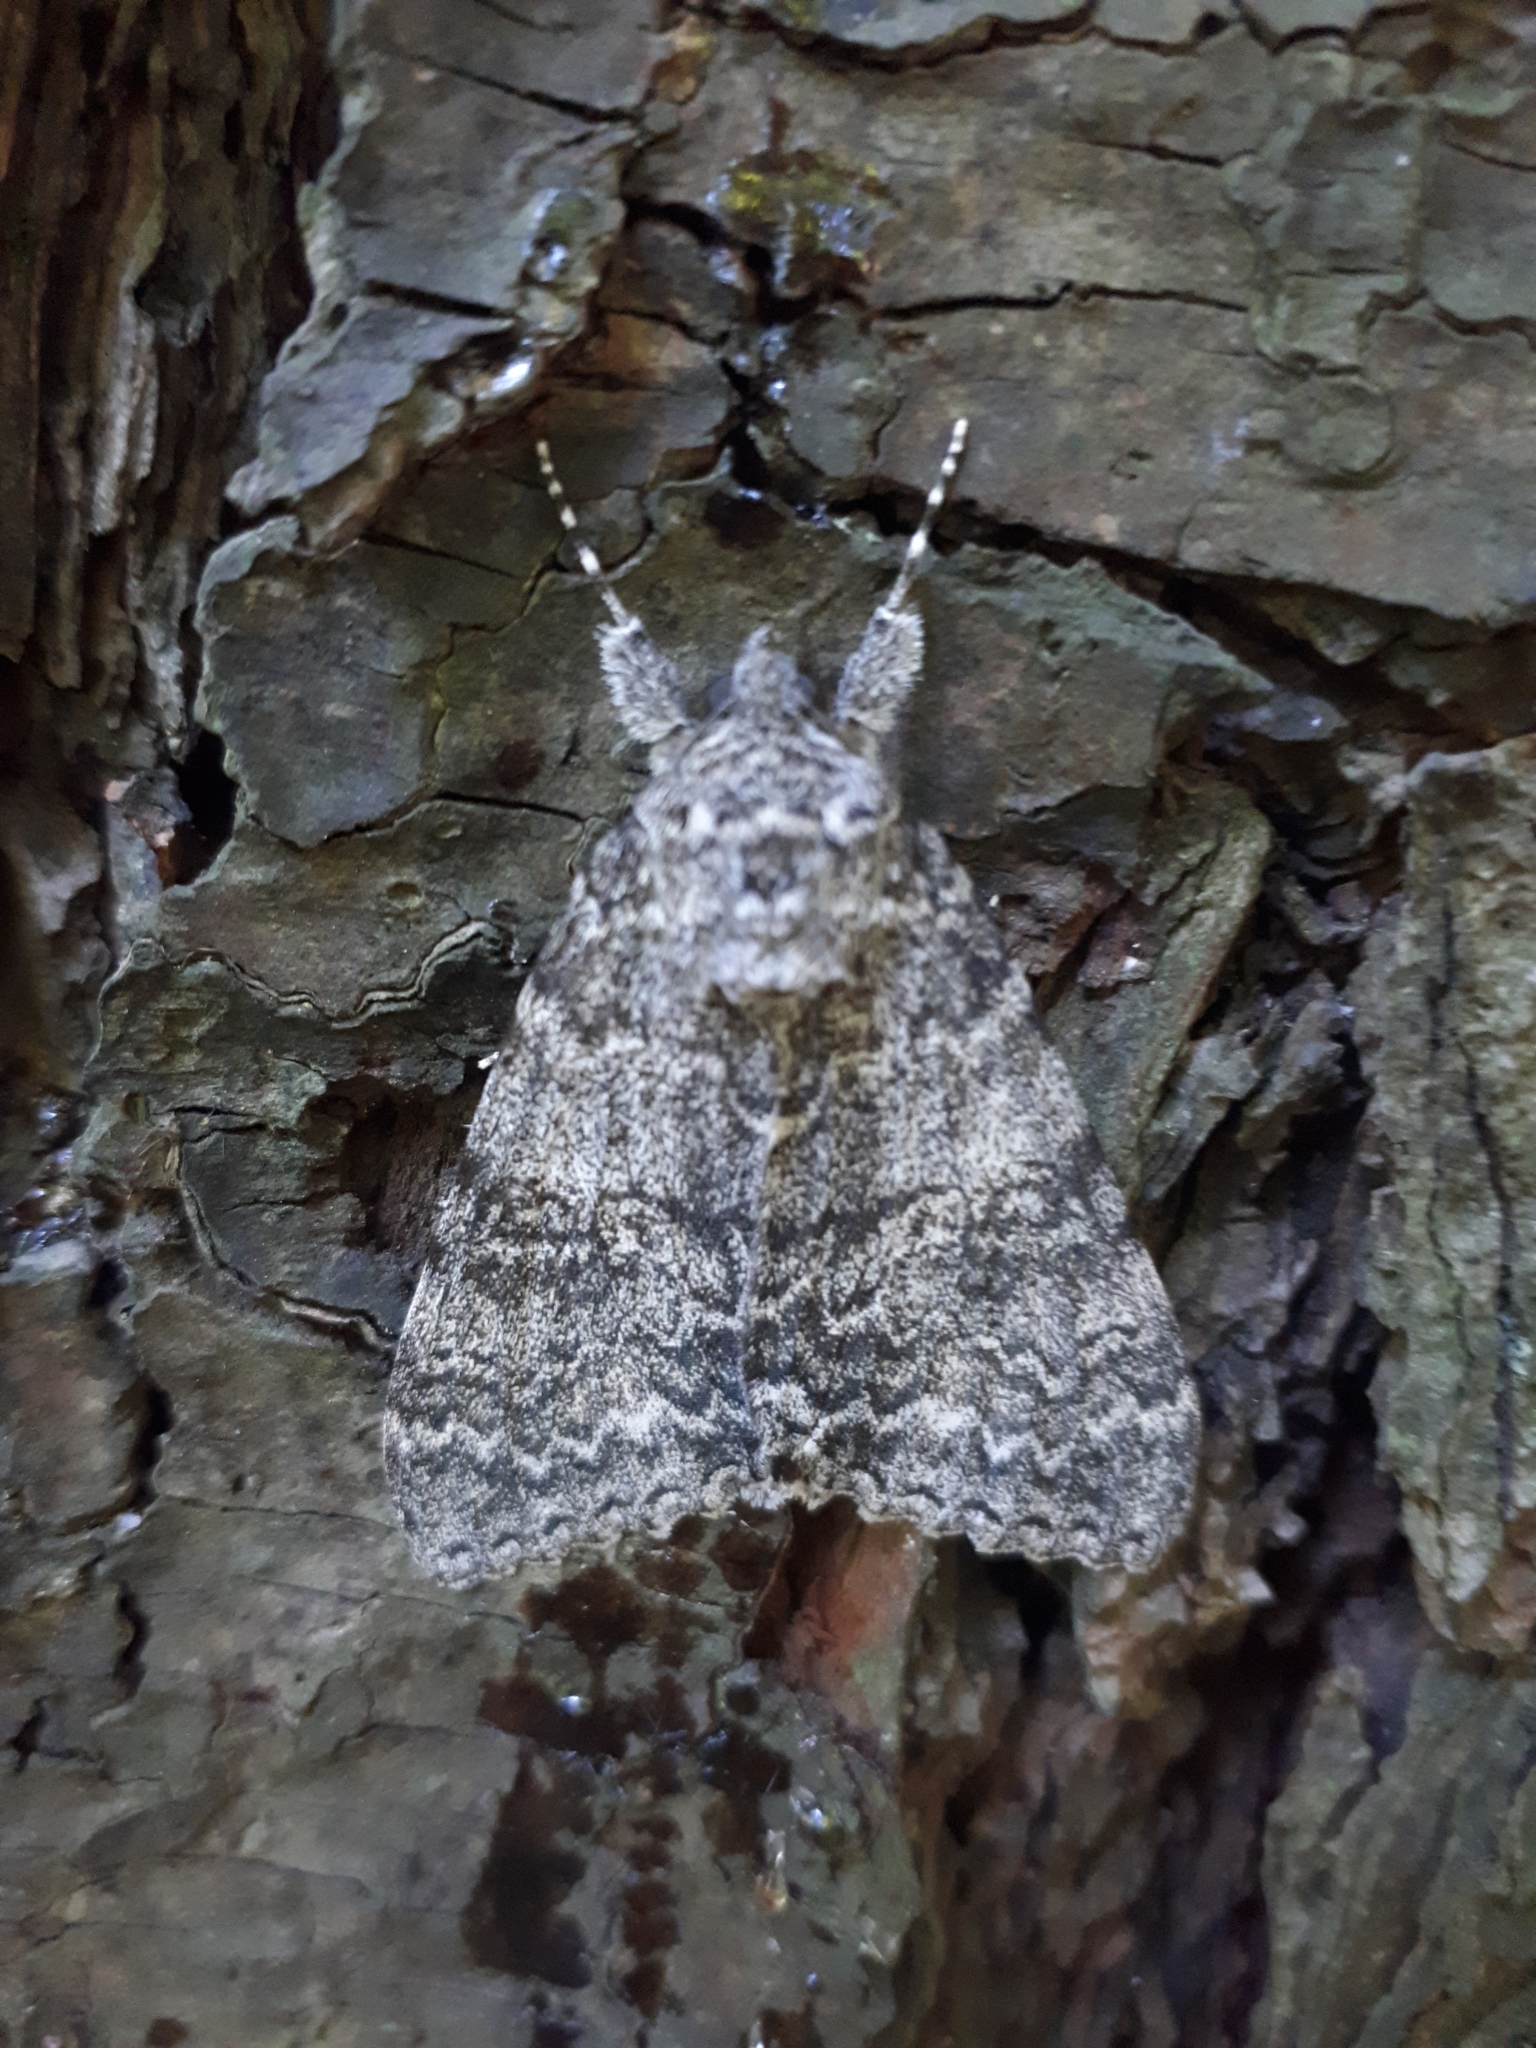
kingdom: Animalia
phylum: Arthropoda
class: Insecta
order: Lepidoptera
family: Erebidae
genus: Catocala
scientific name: Catocala unijuga
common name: Once-married underwing
